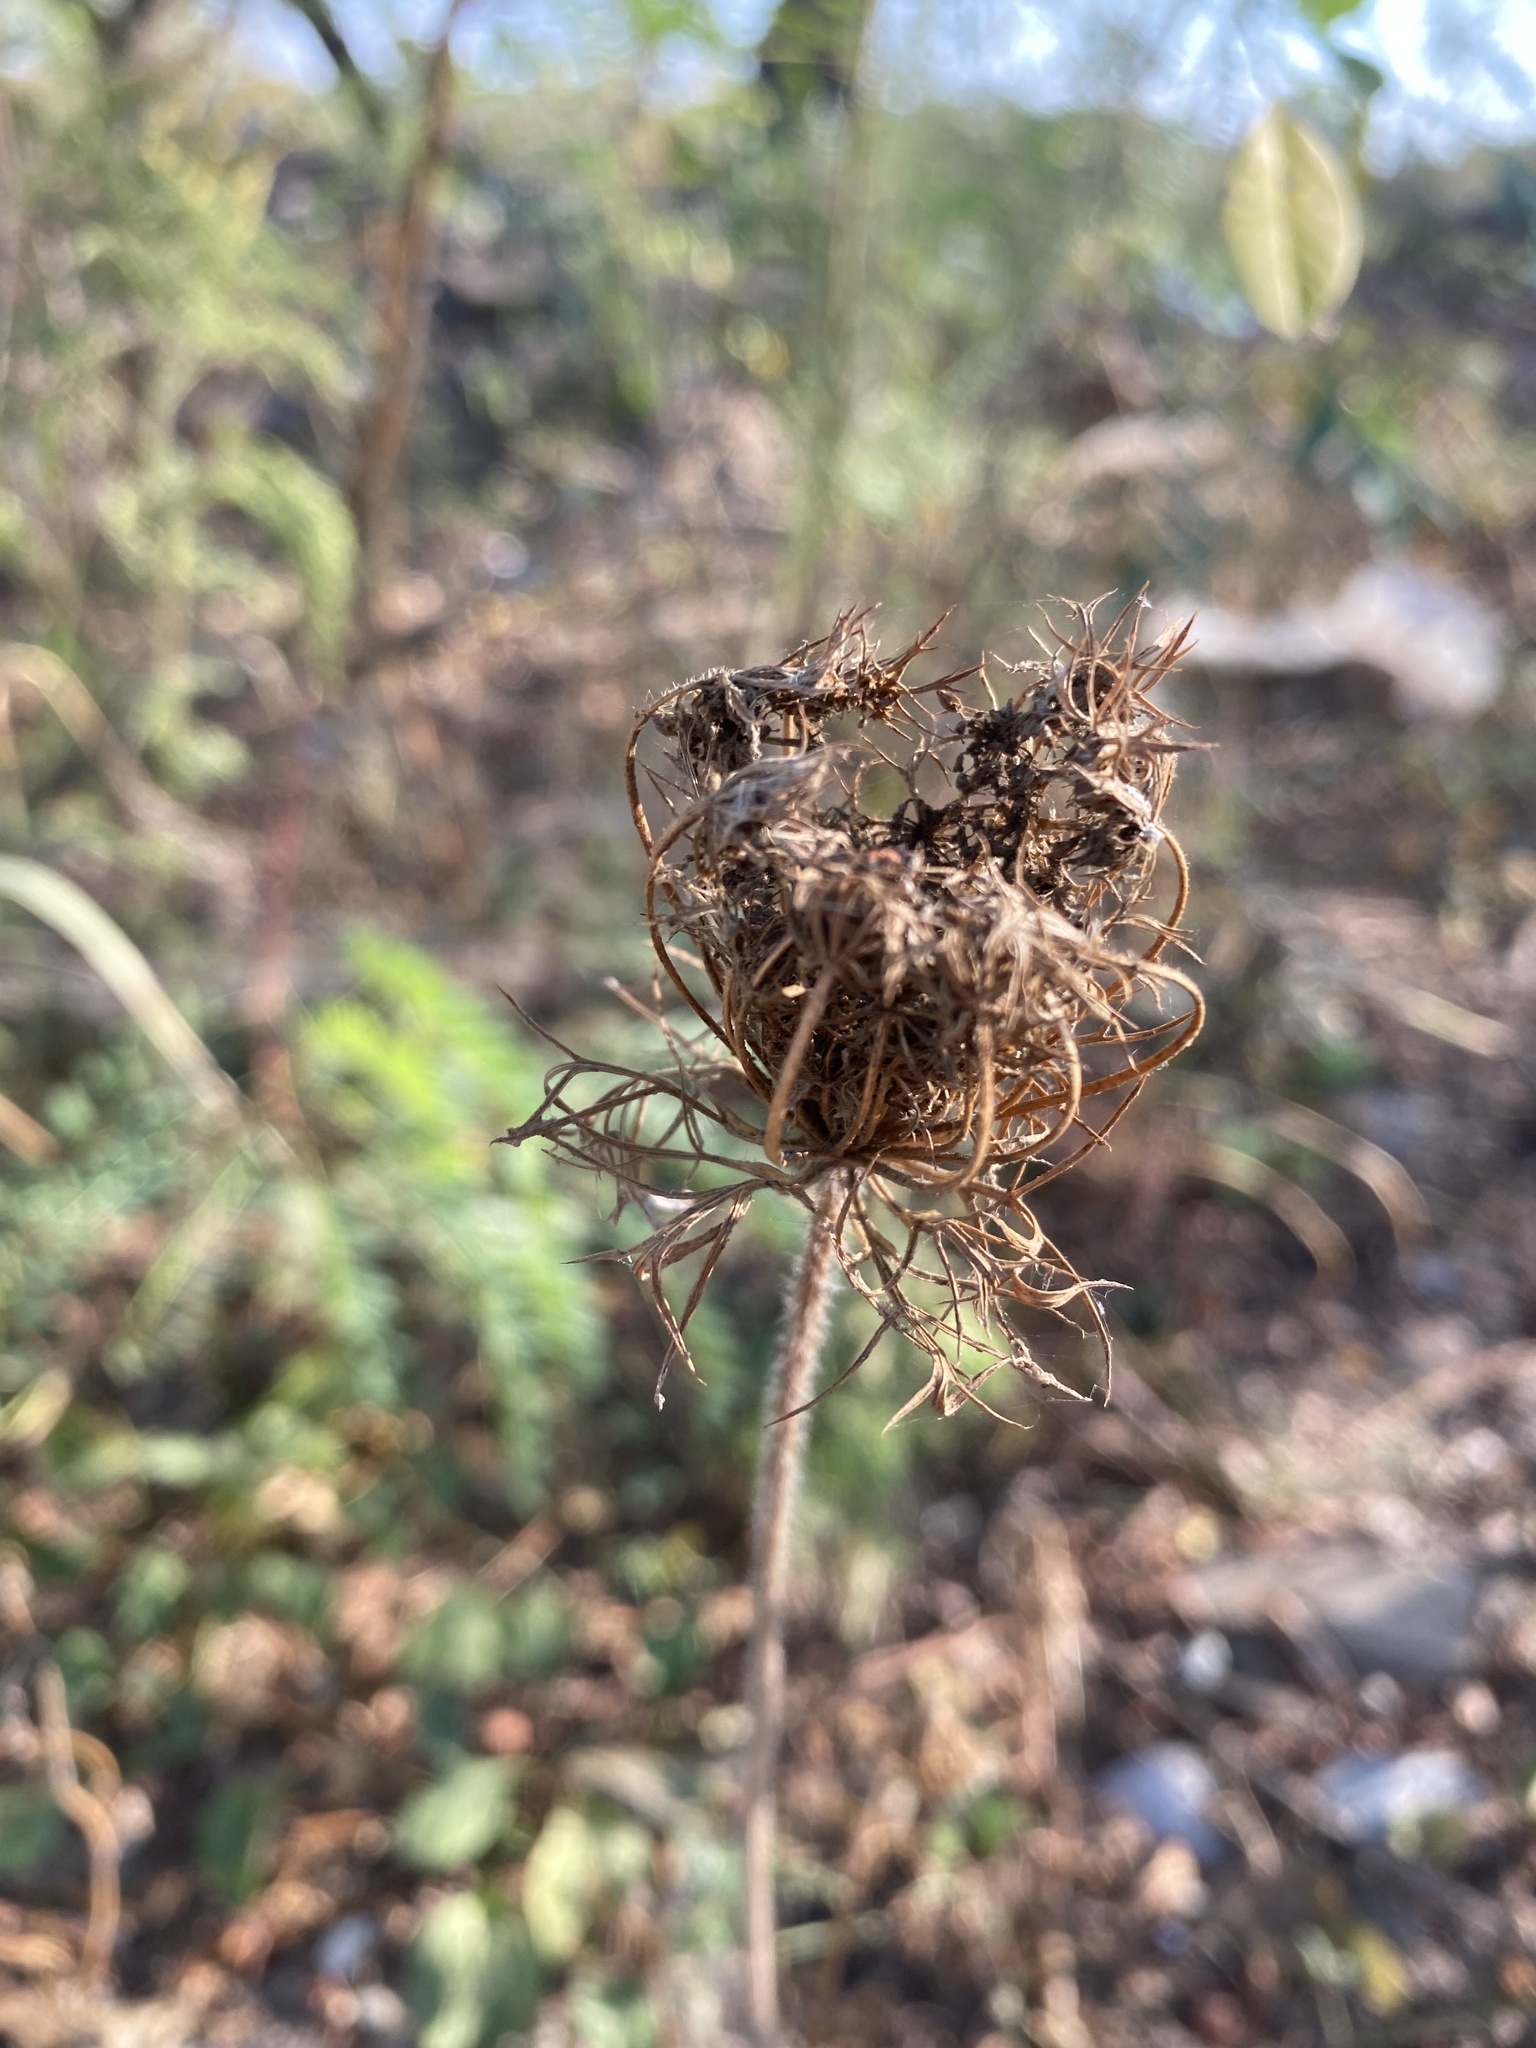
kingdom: Plantae
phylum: Tracheophyta
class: Magnoliopsida
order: Apiales
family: Apiaceae
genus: Daucus
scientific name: Daucus carota
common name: Wild carrot
